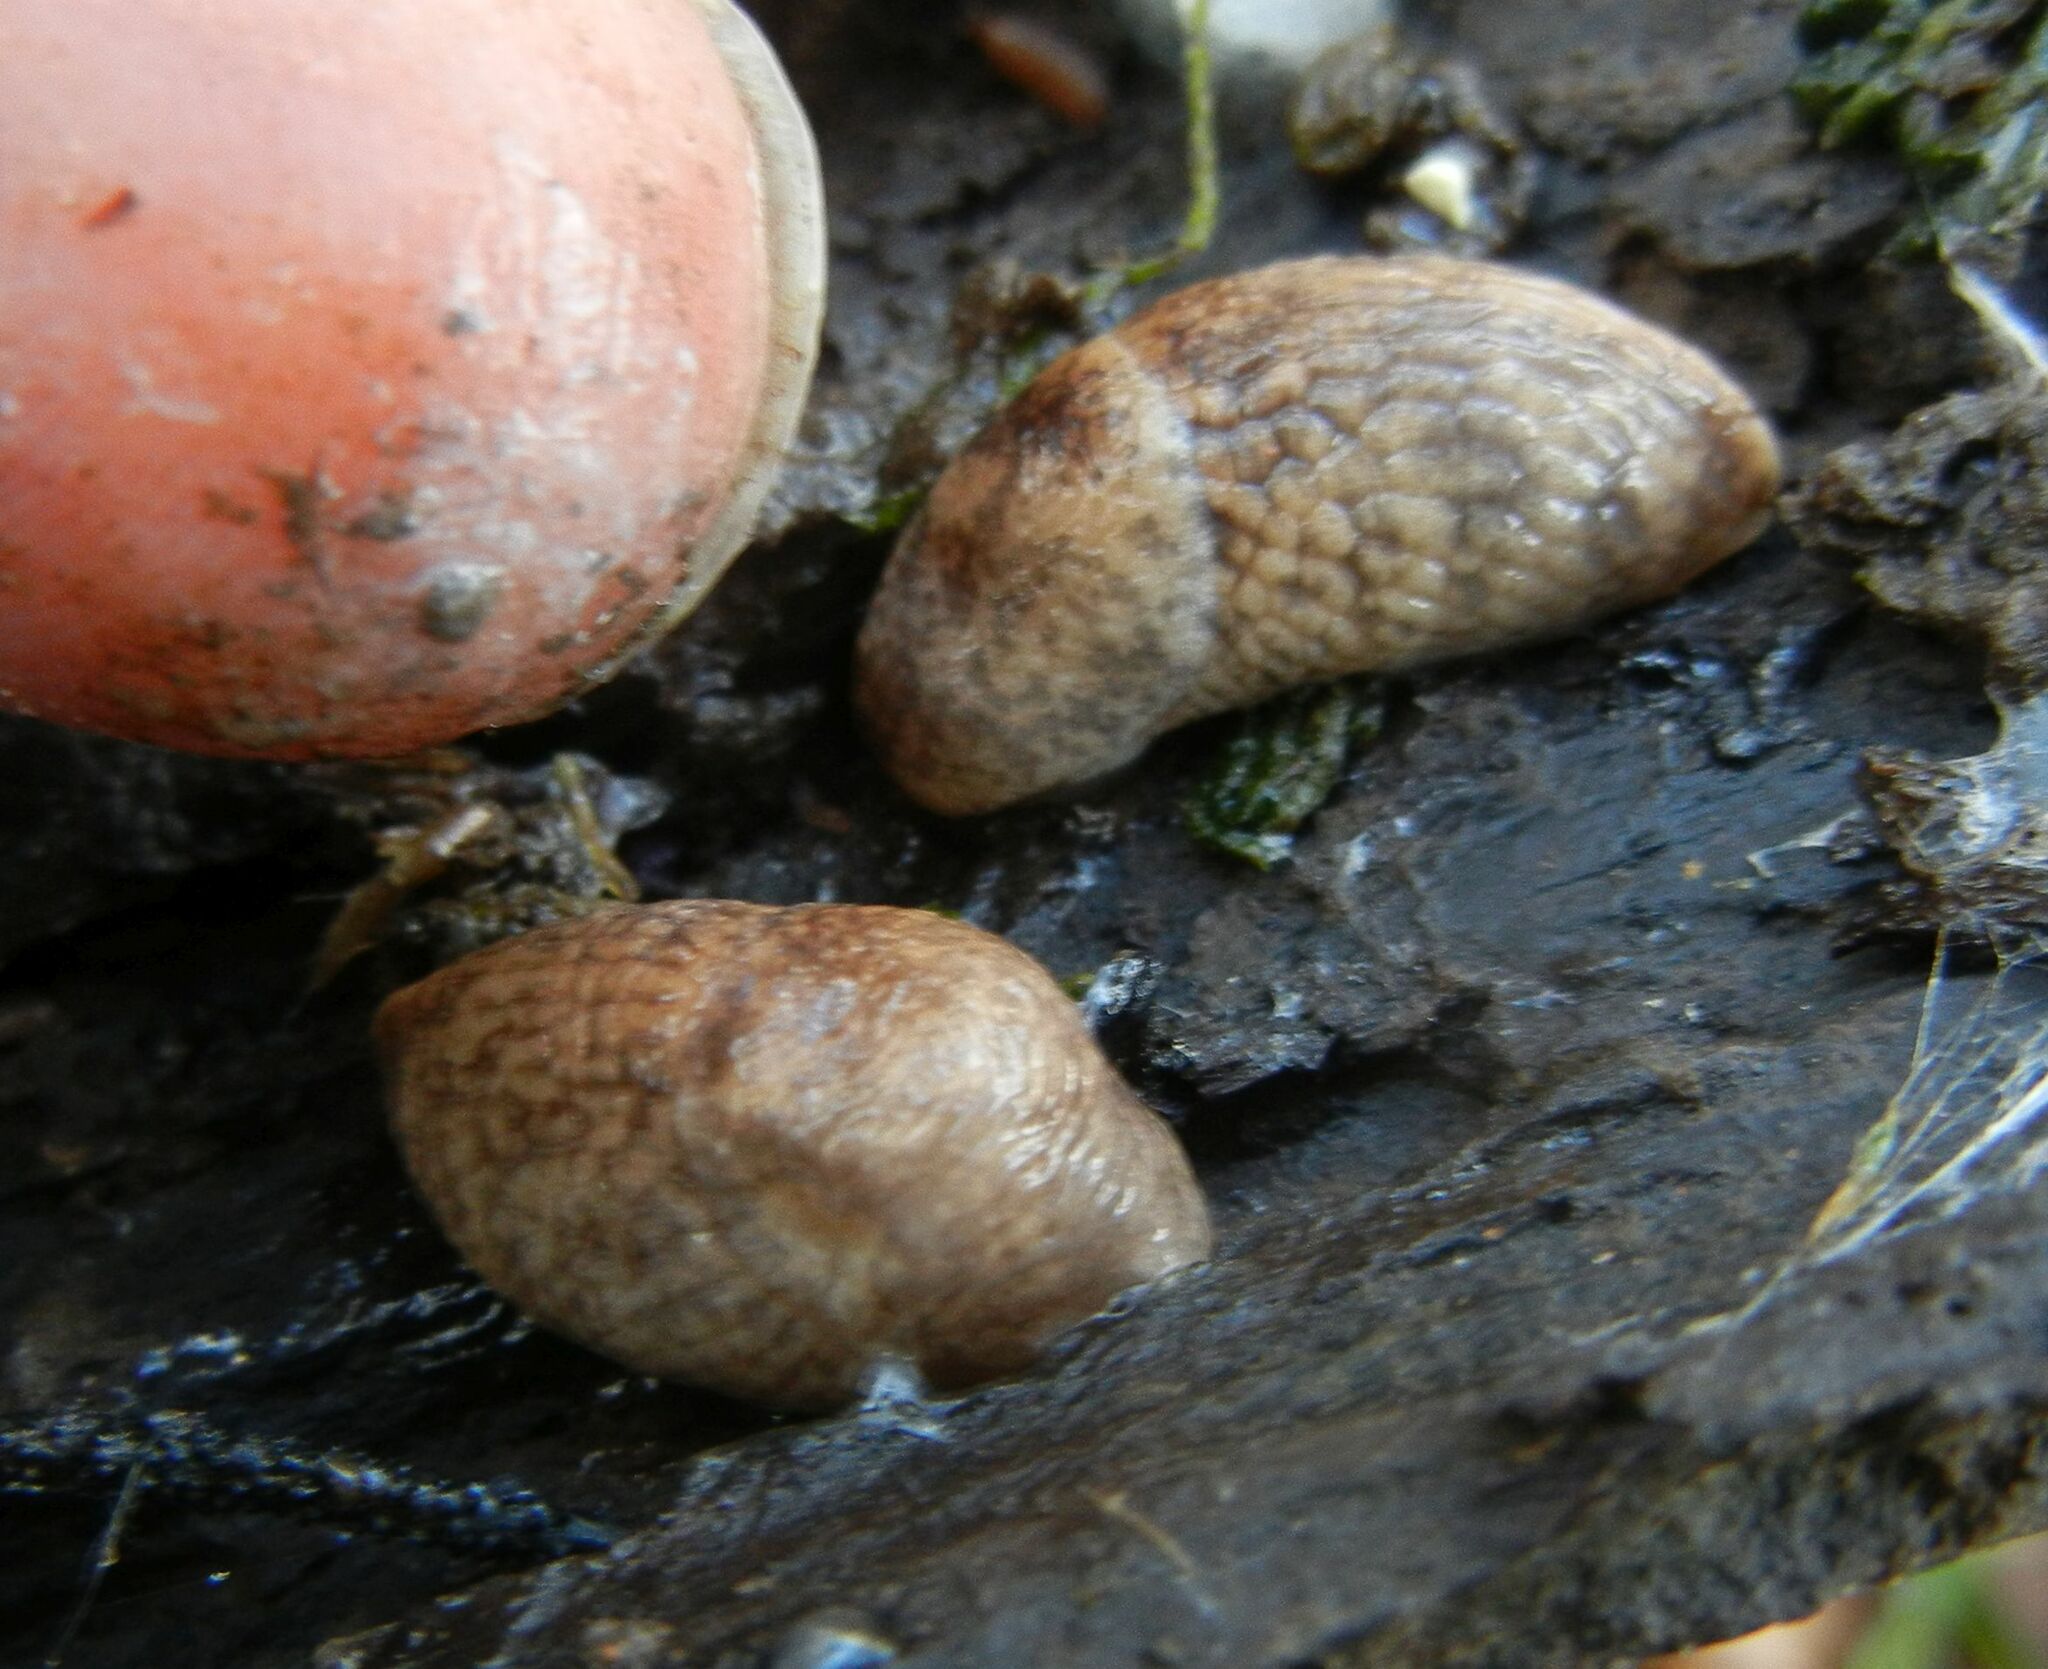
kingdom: Animalia
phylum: Mollusca
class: Gastropoda
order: Stylommatophora
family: Agriolimacidae
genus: Deroceras
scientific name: Deroceras reticulatum
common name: Gray field slug
